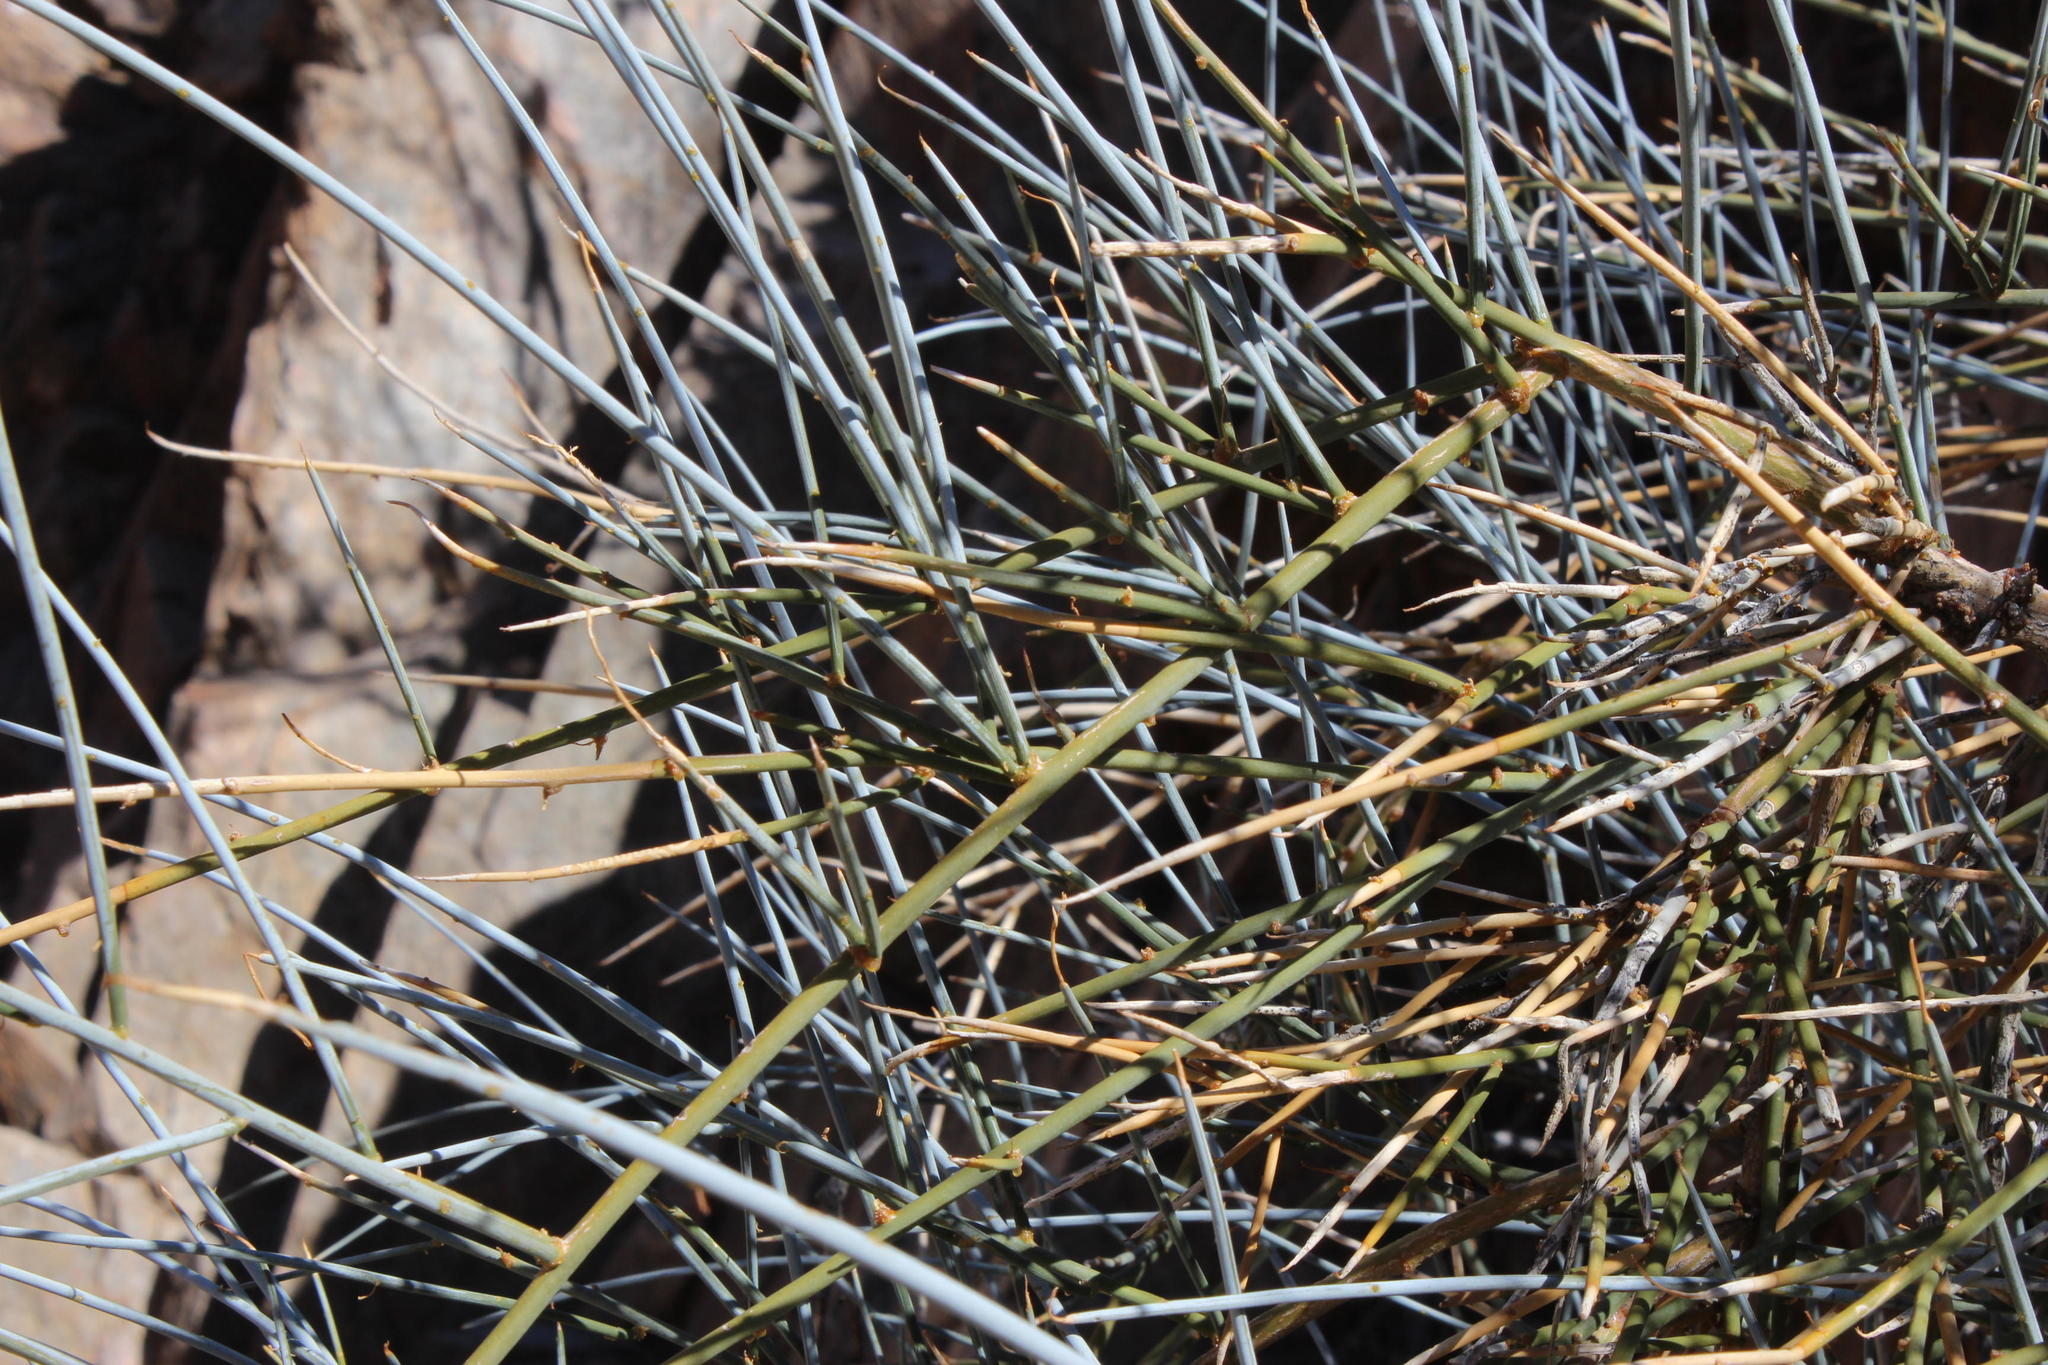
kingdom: Plantae
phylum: Tracheophyta
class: Magnoliopsida
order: Brassicales
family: Capparaceae
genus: Cadaba
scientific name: Cadaba aphylla
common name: Black storm
